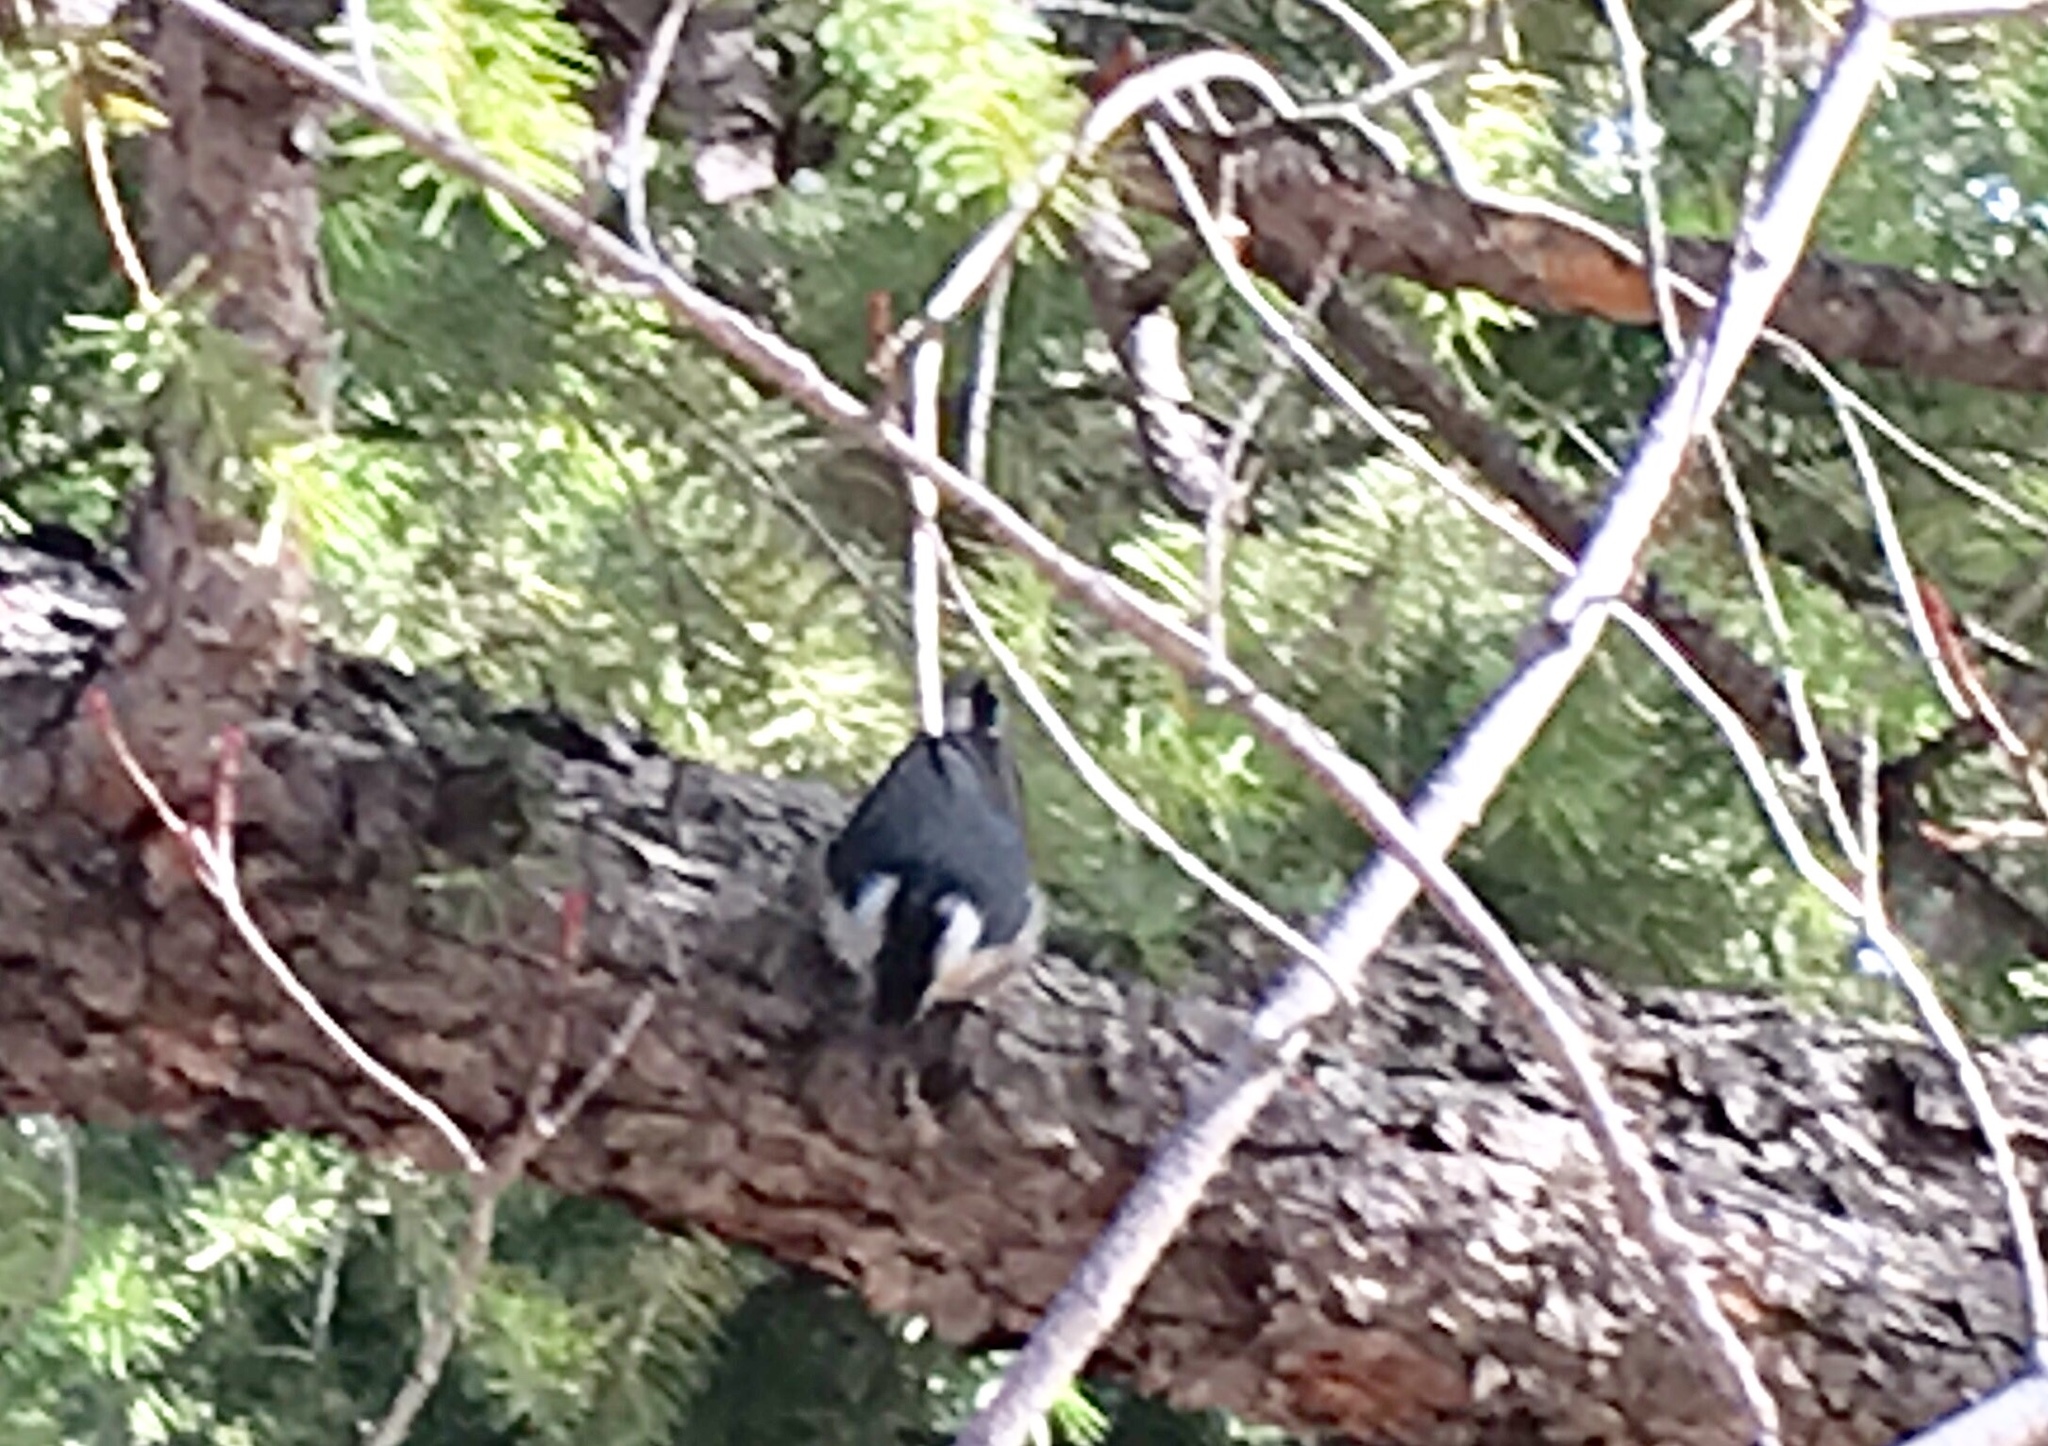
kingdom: Animalia
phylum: Chordata
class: Aves
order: Passeriformes
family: Sittidae
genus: Sitta
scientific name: Sitta carolinensis
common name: White-breasted nuthatch
